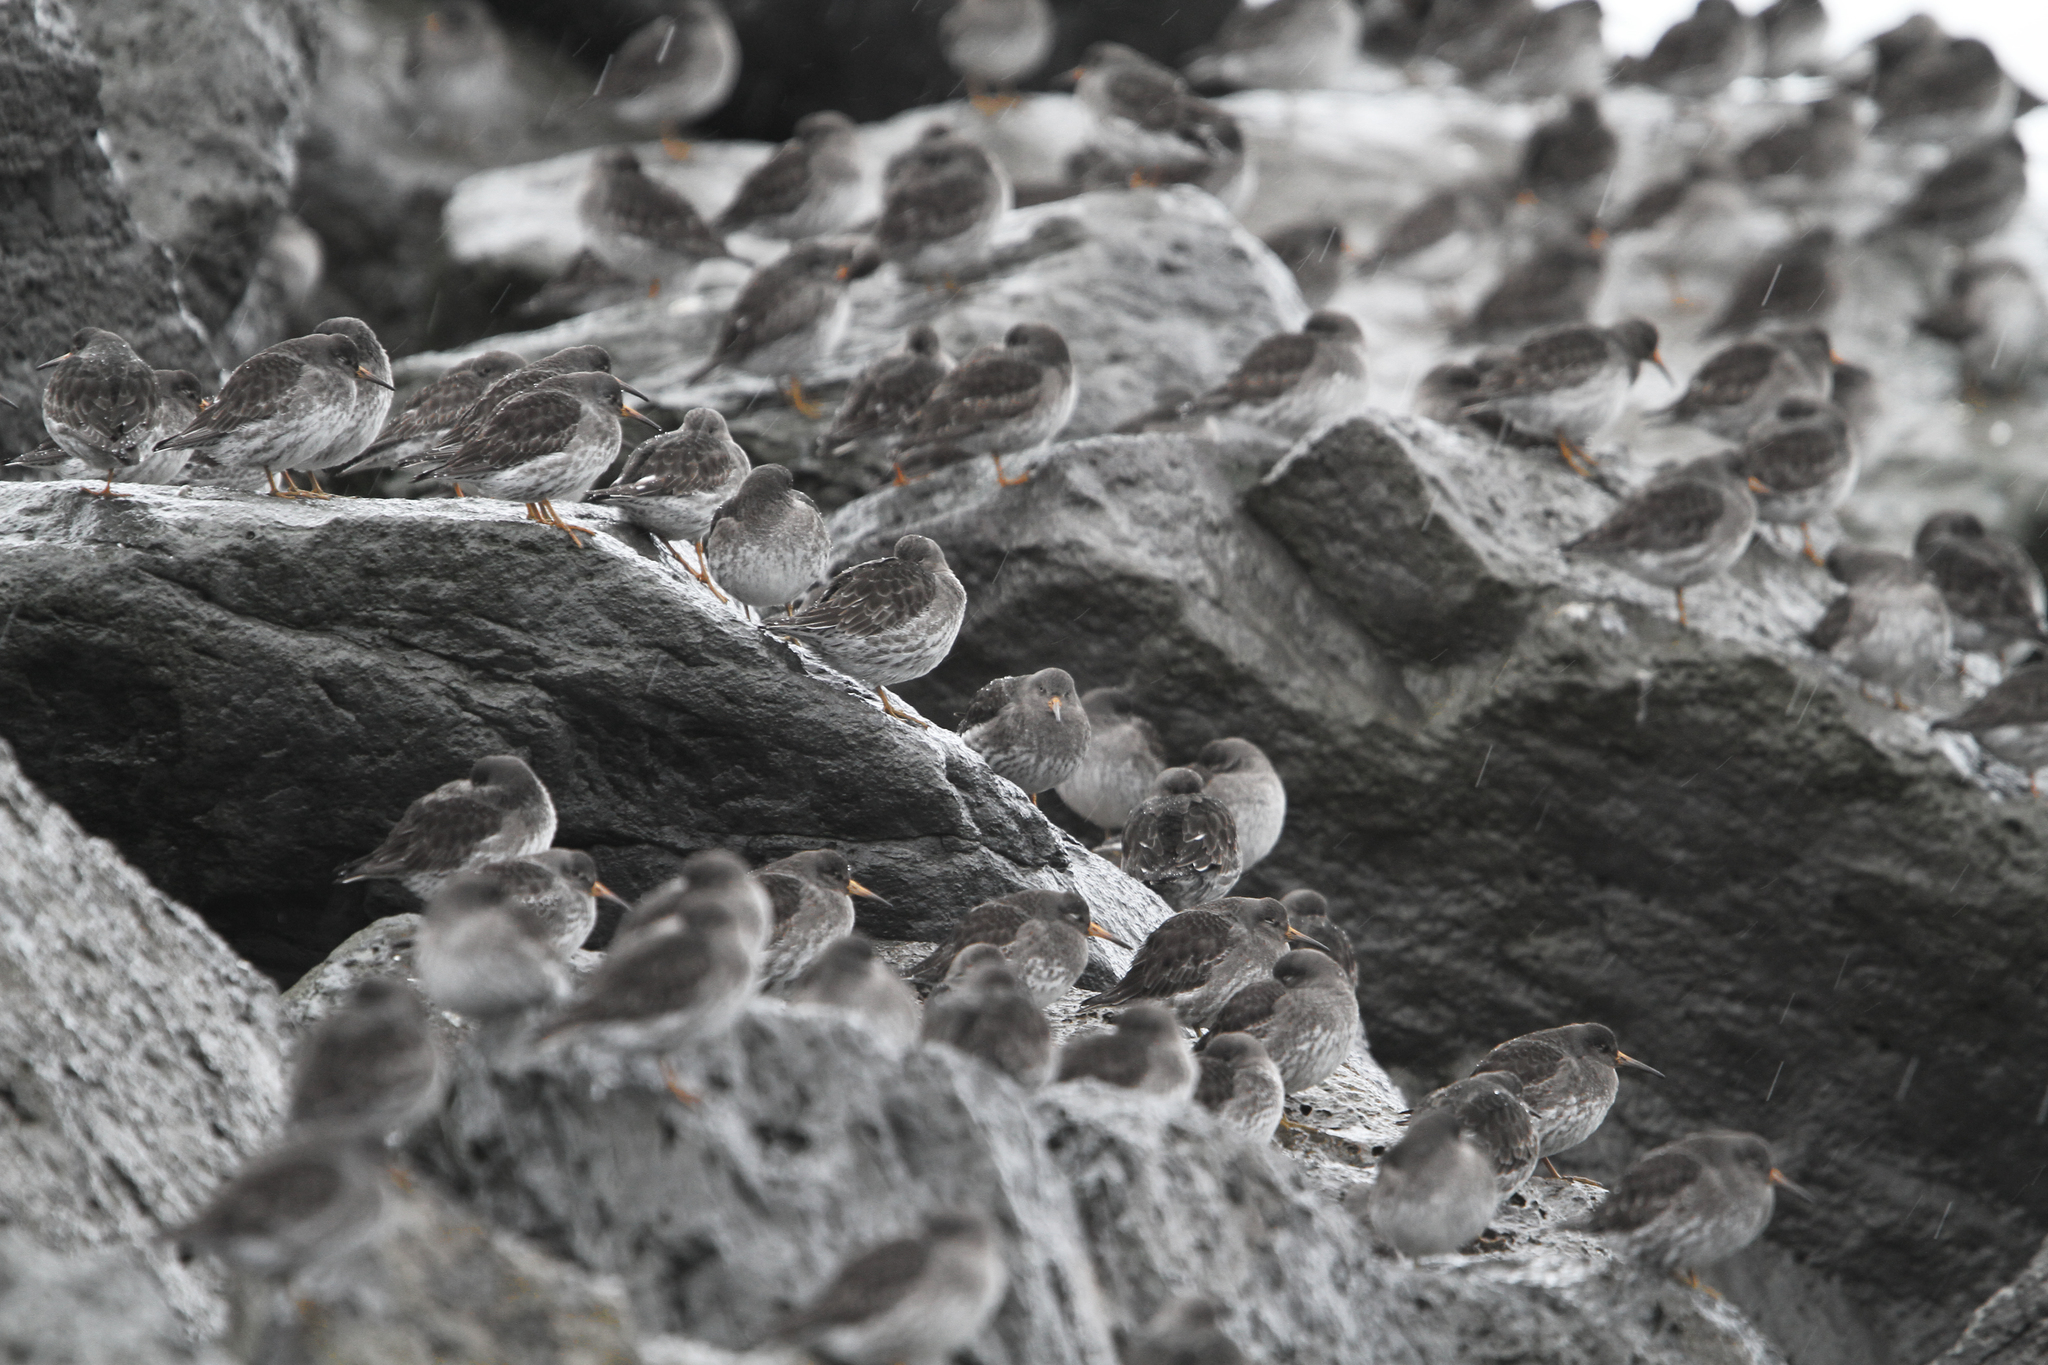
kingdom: Animalia
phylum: Chordata
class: Aves
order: Charadriiformes
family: Scolopacidae
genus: Calidris
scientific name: Calidris maritima
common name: Purple sandpiper
